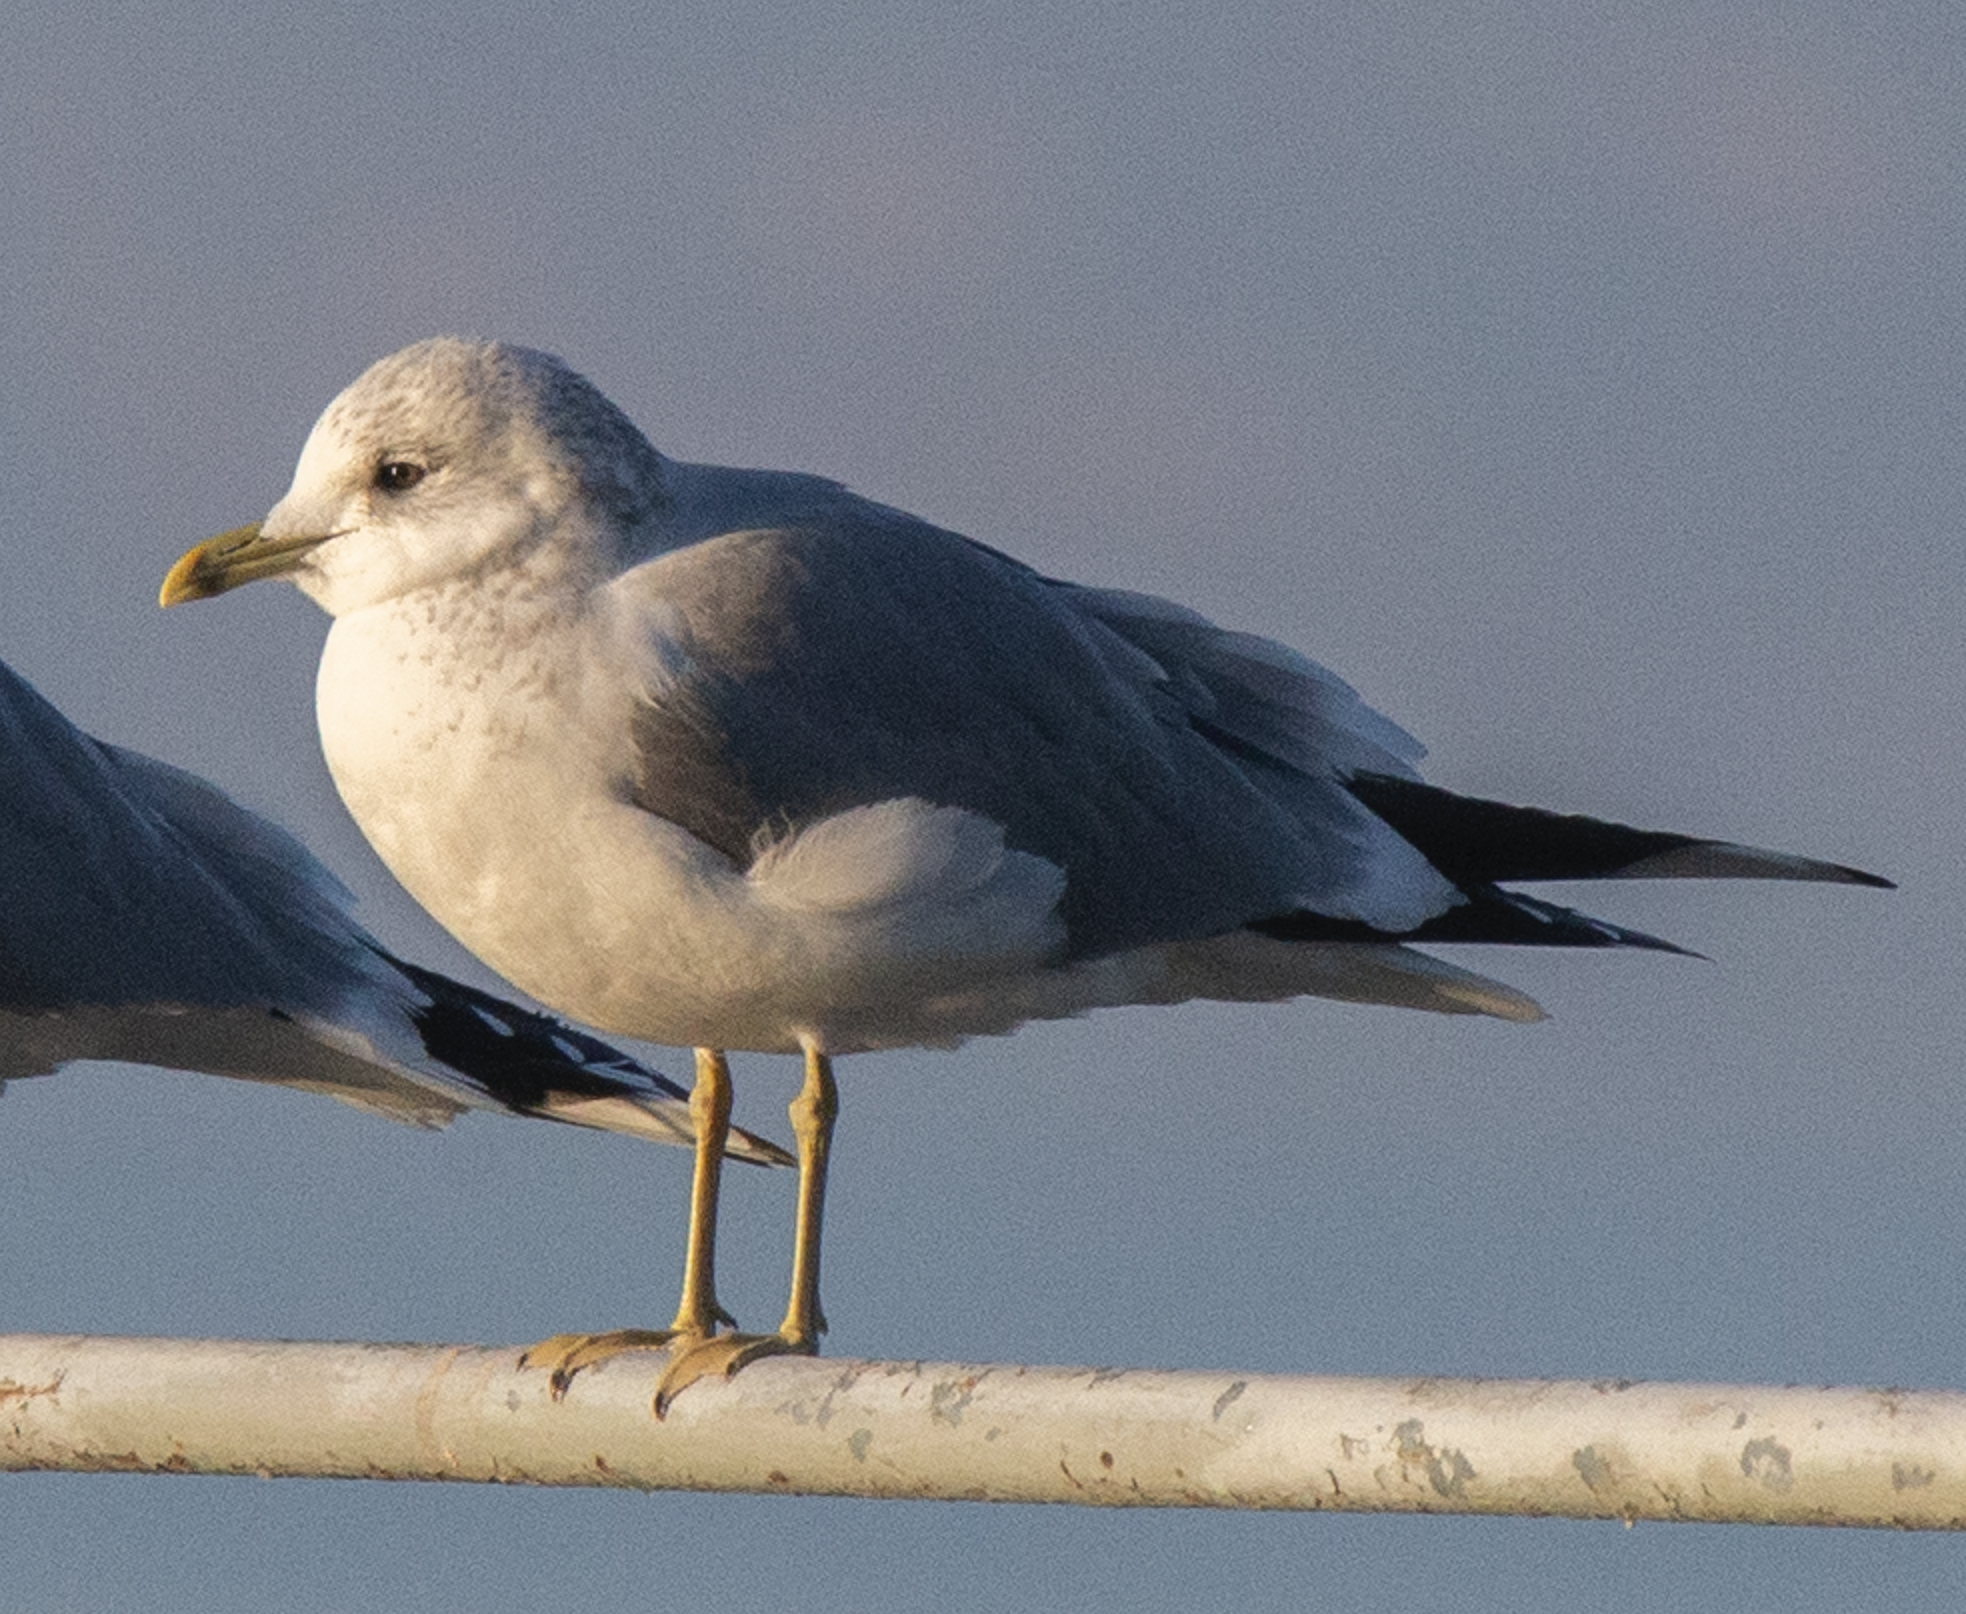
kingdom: Animalia
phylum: Chordata
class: Aves
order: Charadriiformes
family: Laridae
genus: Larus
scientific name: Larus canus
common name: Mew gull
